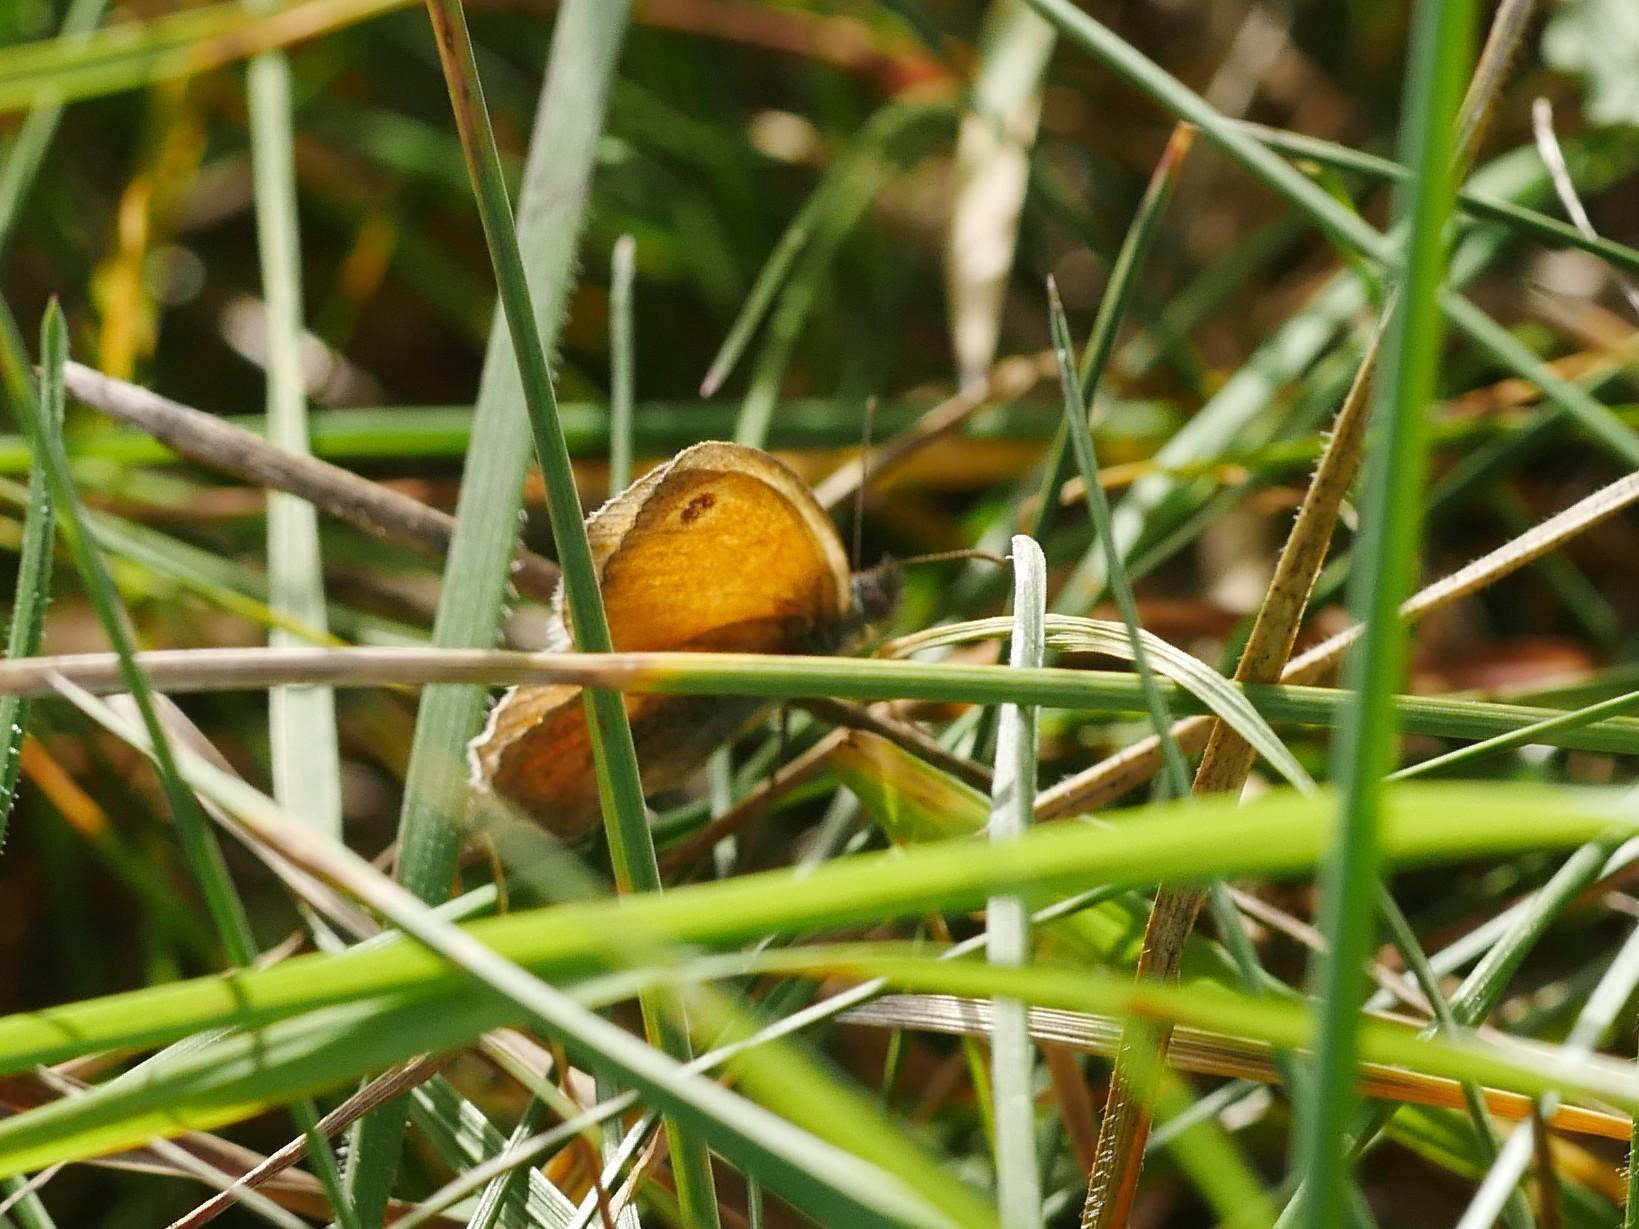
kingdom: Animalia
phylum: Arthropoda
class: Insecta
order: Lepidoptera
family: Nymphalidae
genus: Coenonympha
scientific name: Coenonympha pamphilus
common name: Small heath
